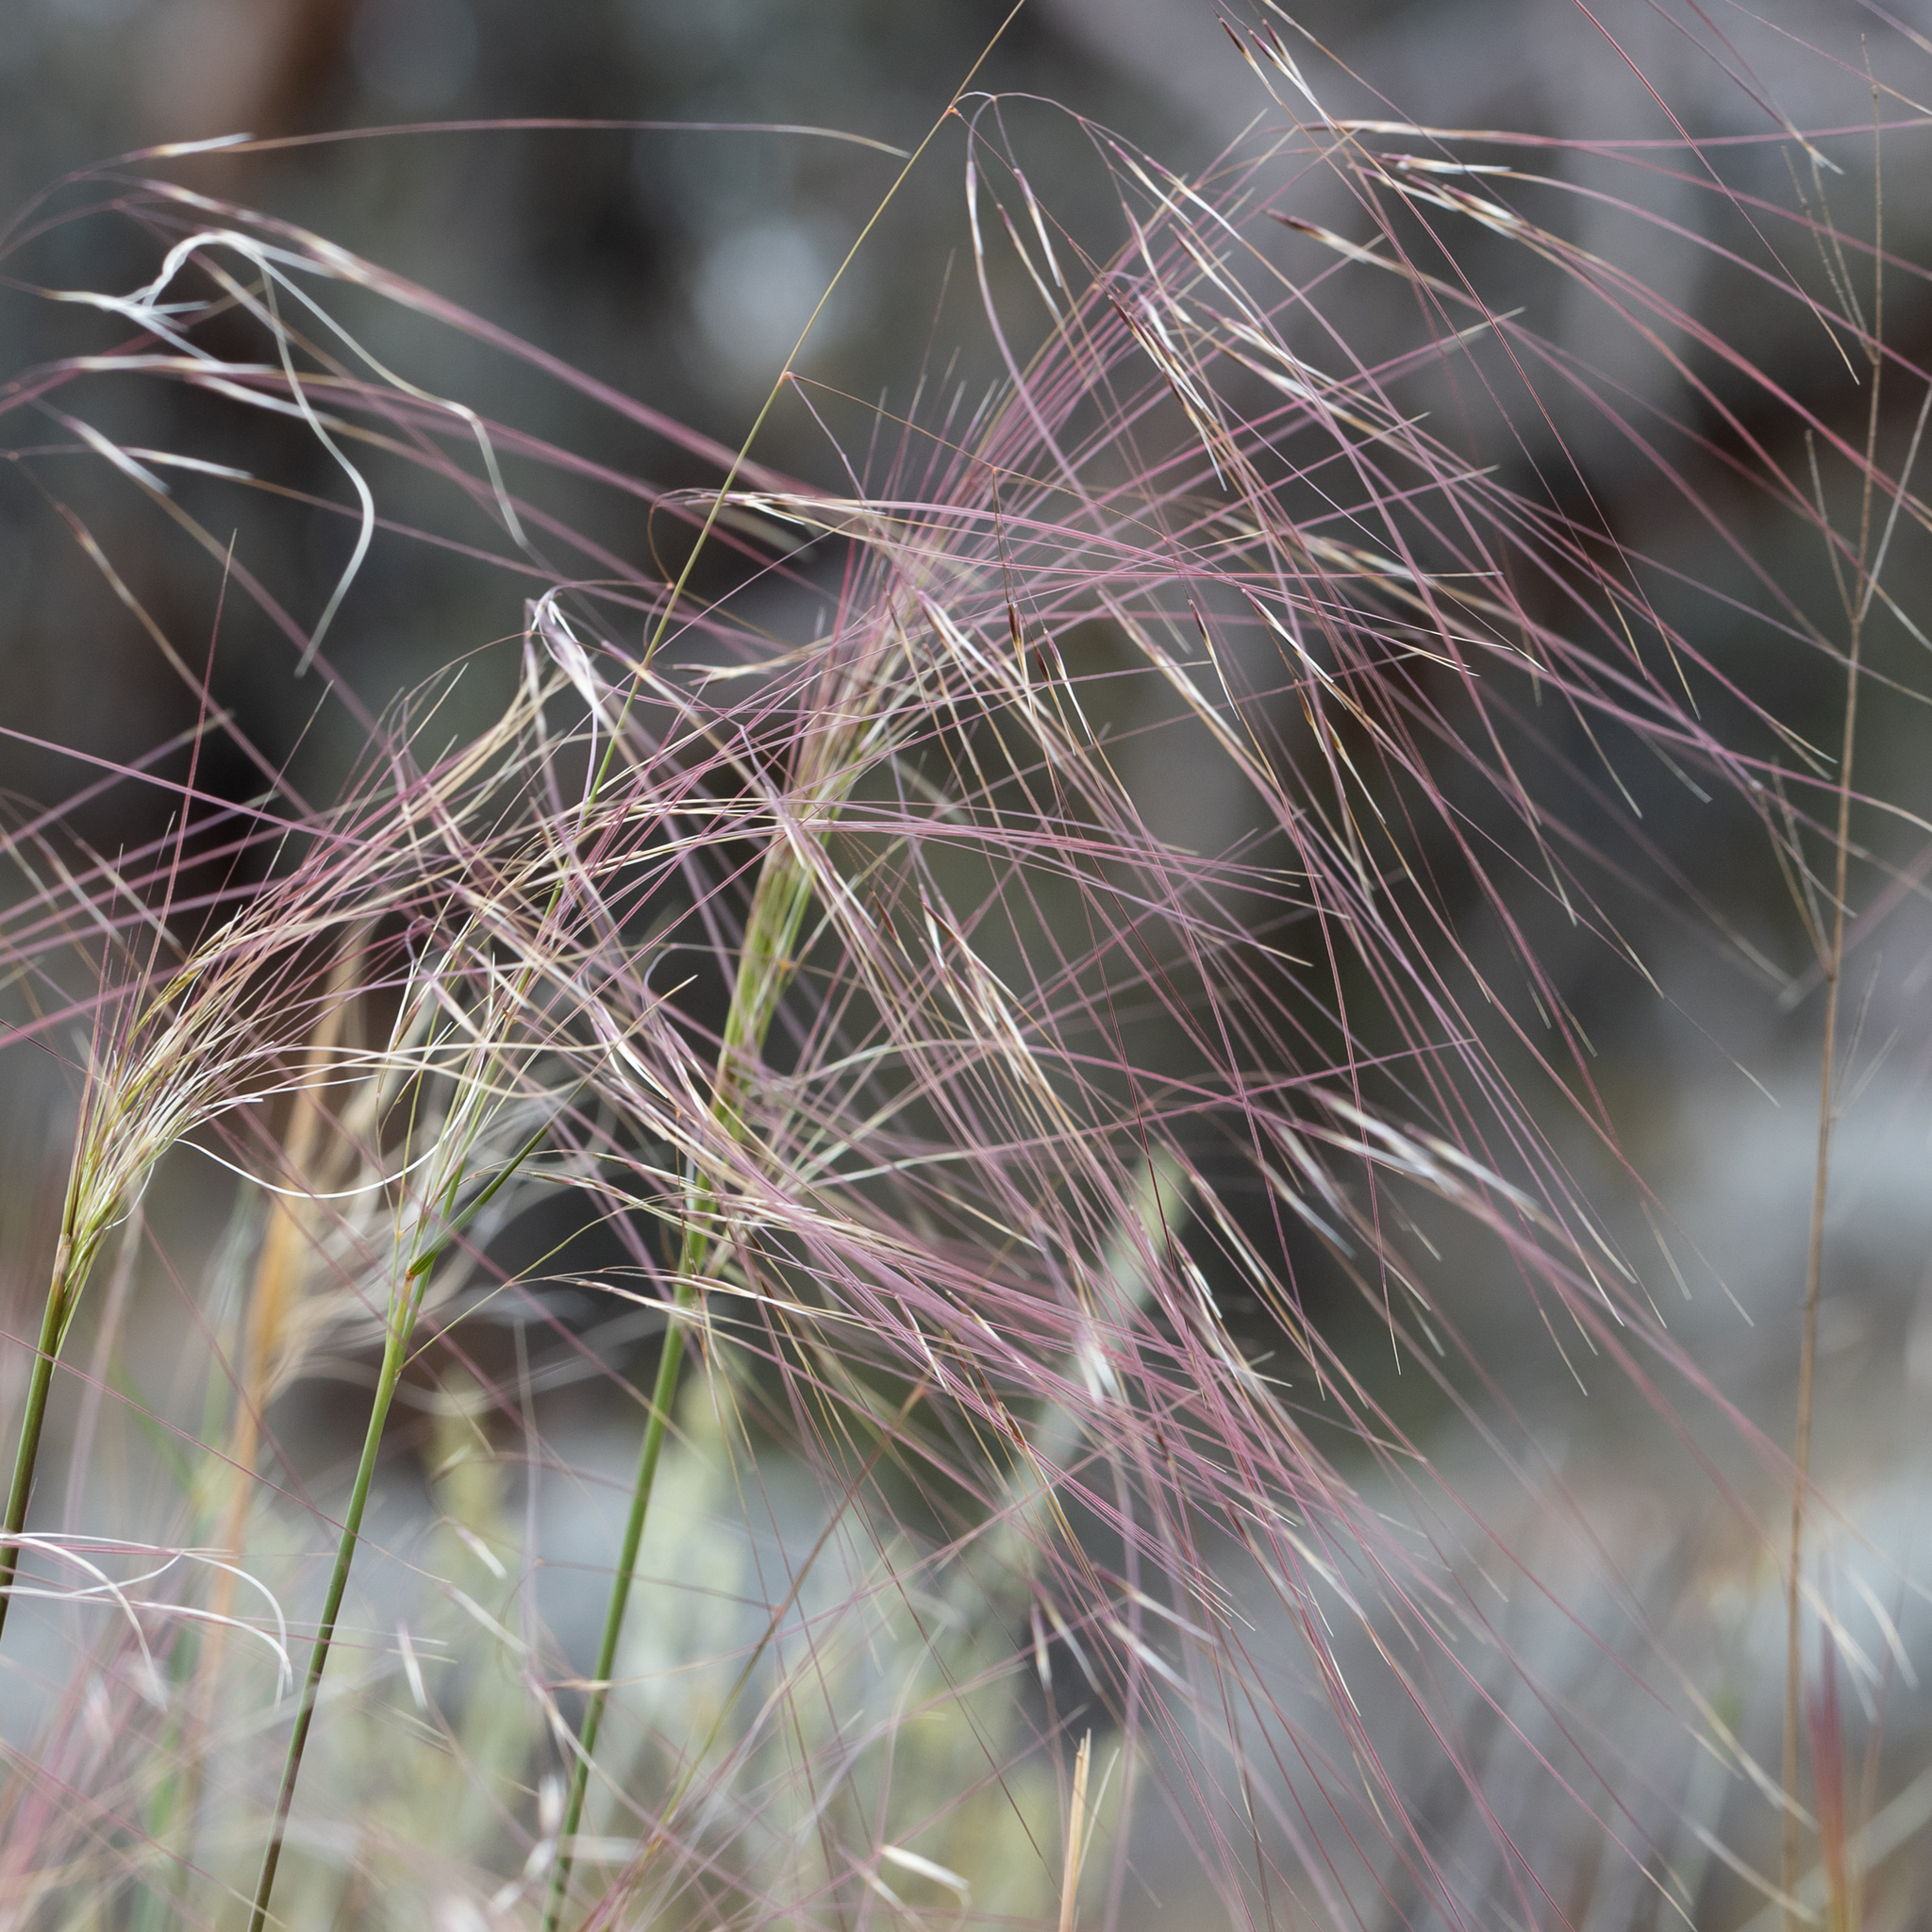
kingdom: Plantae
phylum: Tracheophyta
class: Liliopsida
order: Poales
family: Poaceae
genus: Austrostipa
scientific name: Austrostipa platychaeta
